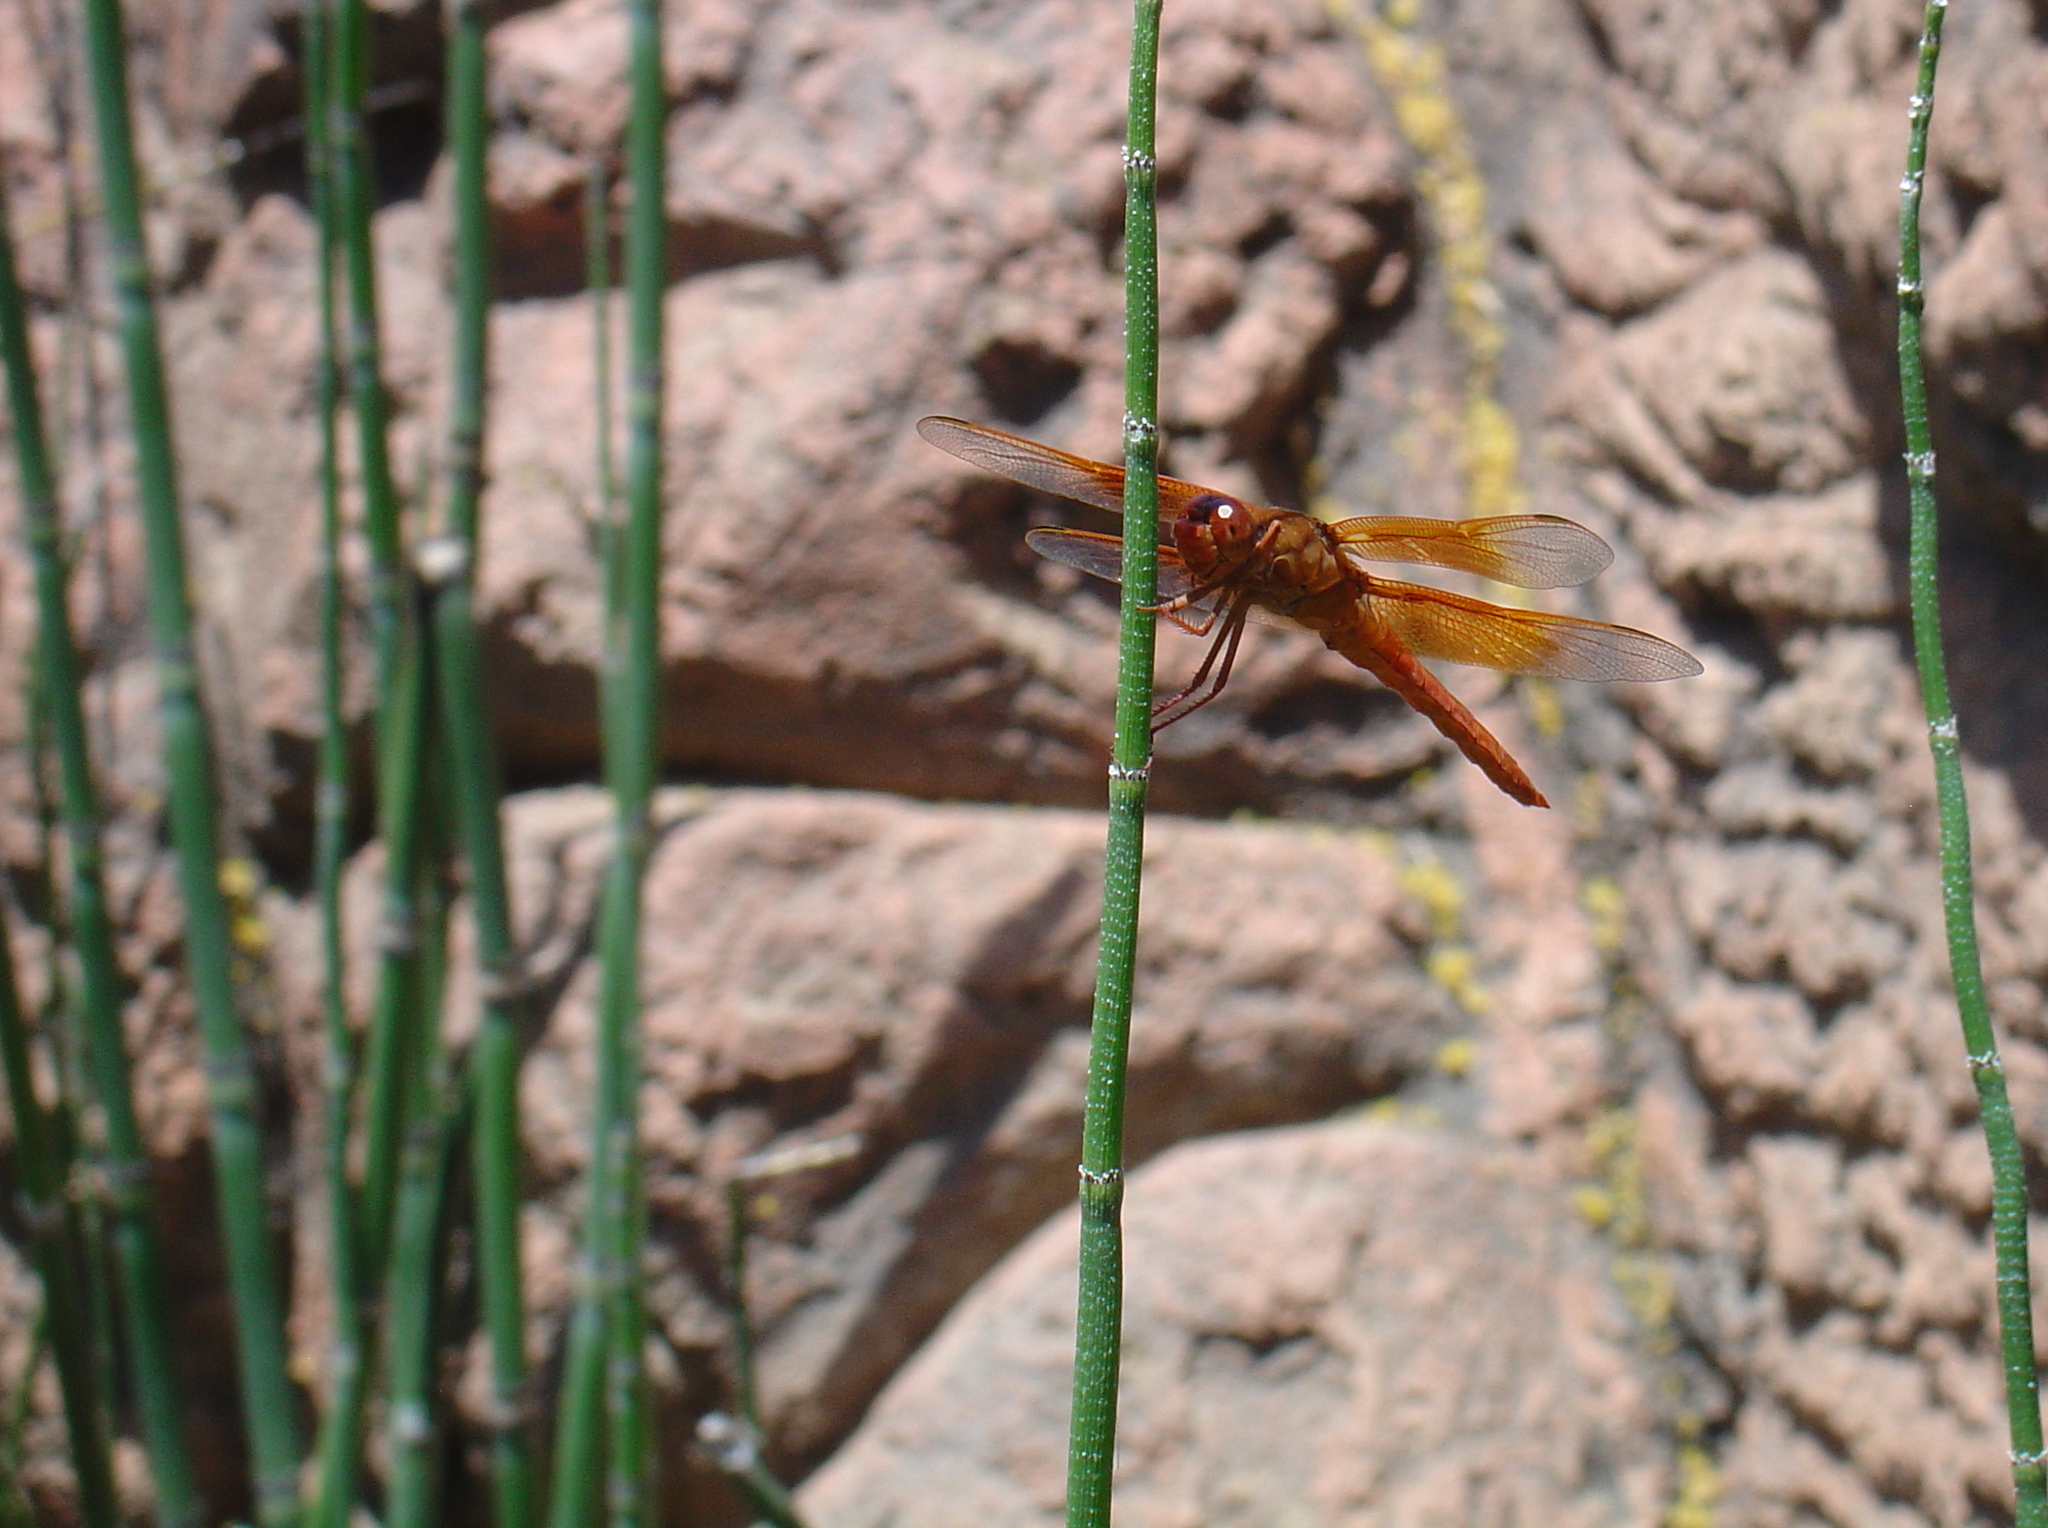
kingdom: Animalia
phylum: Arthropoda
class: Insecta
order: Odonata
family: Libellulidae
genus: Libellula
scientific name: Libellula saturata
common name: Flame skimmer
